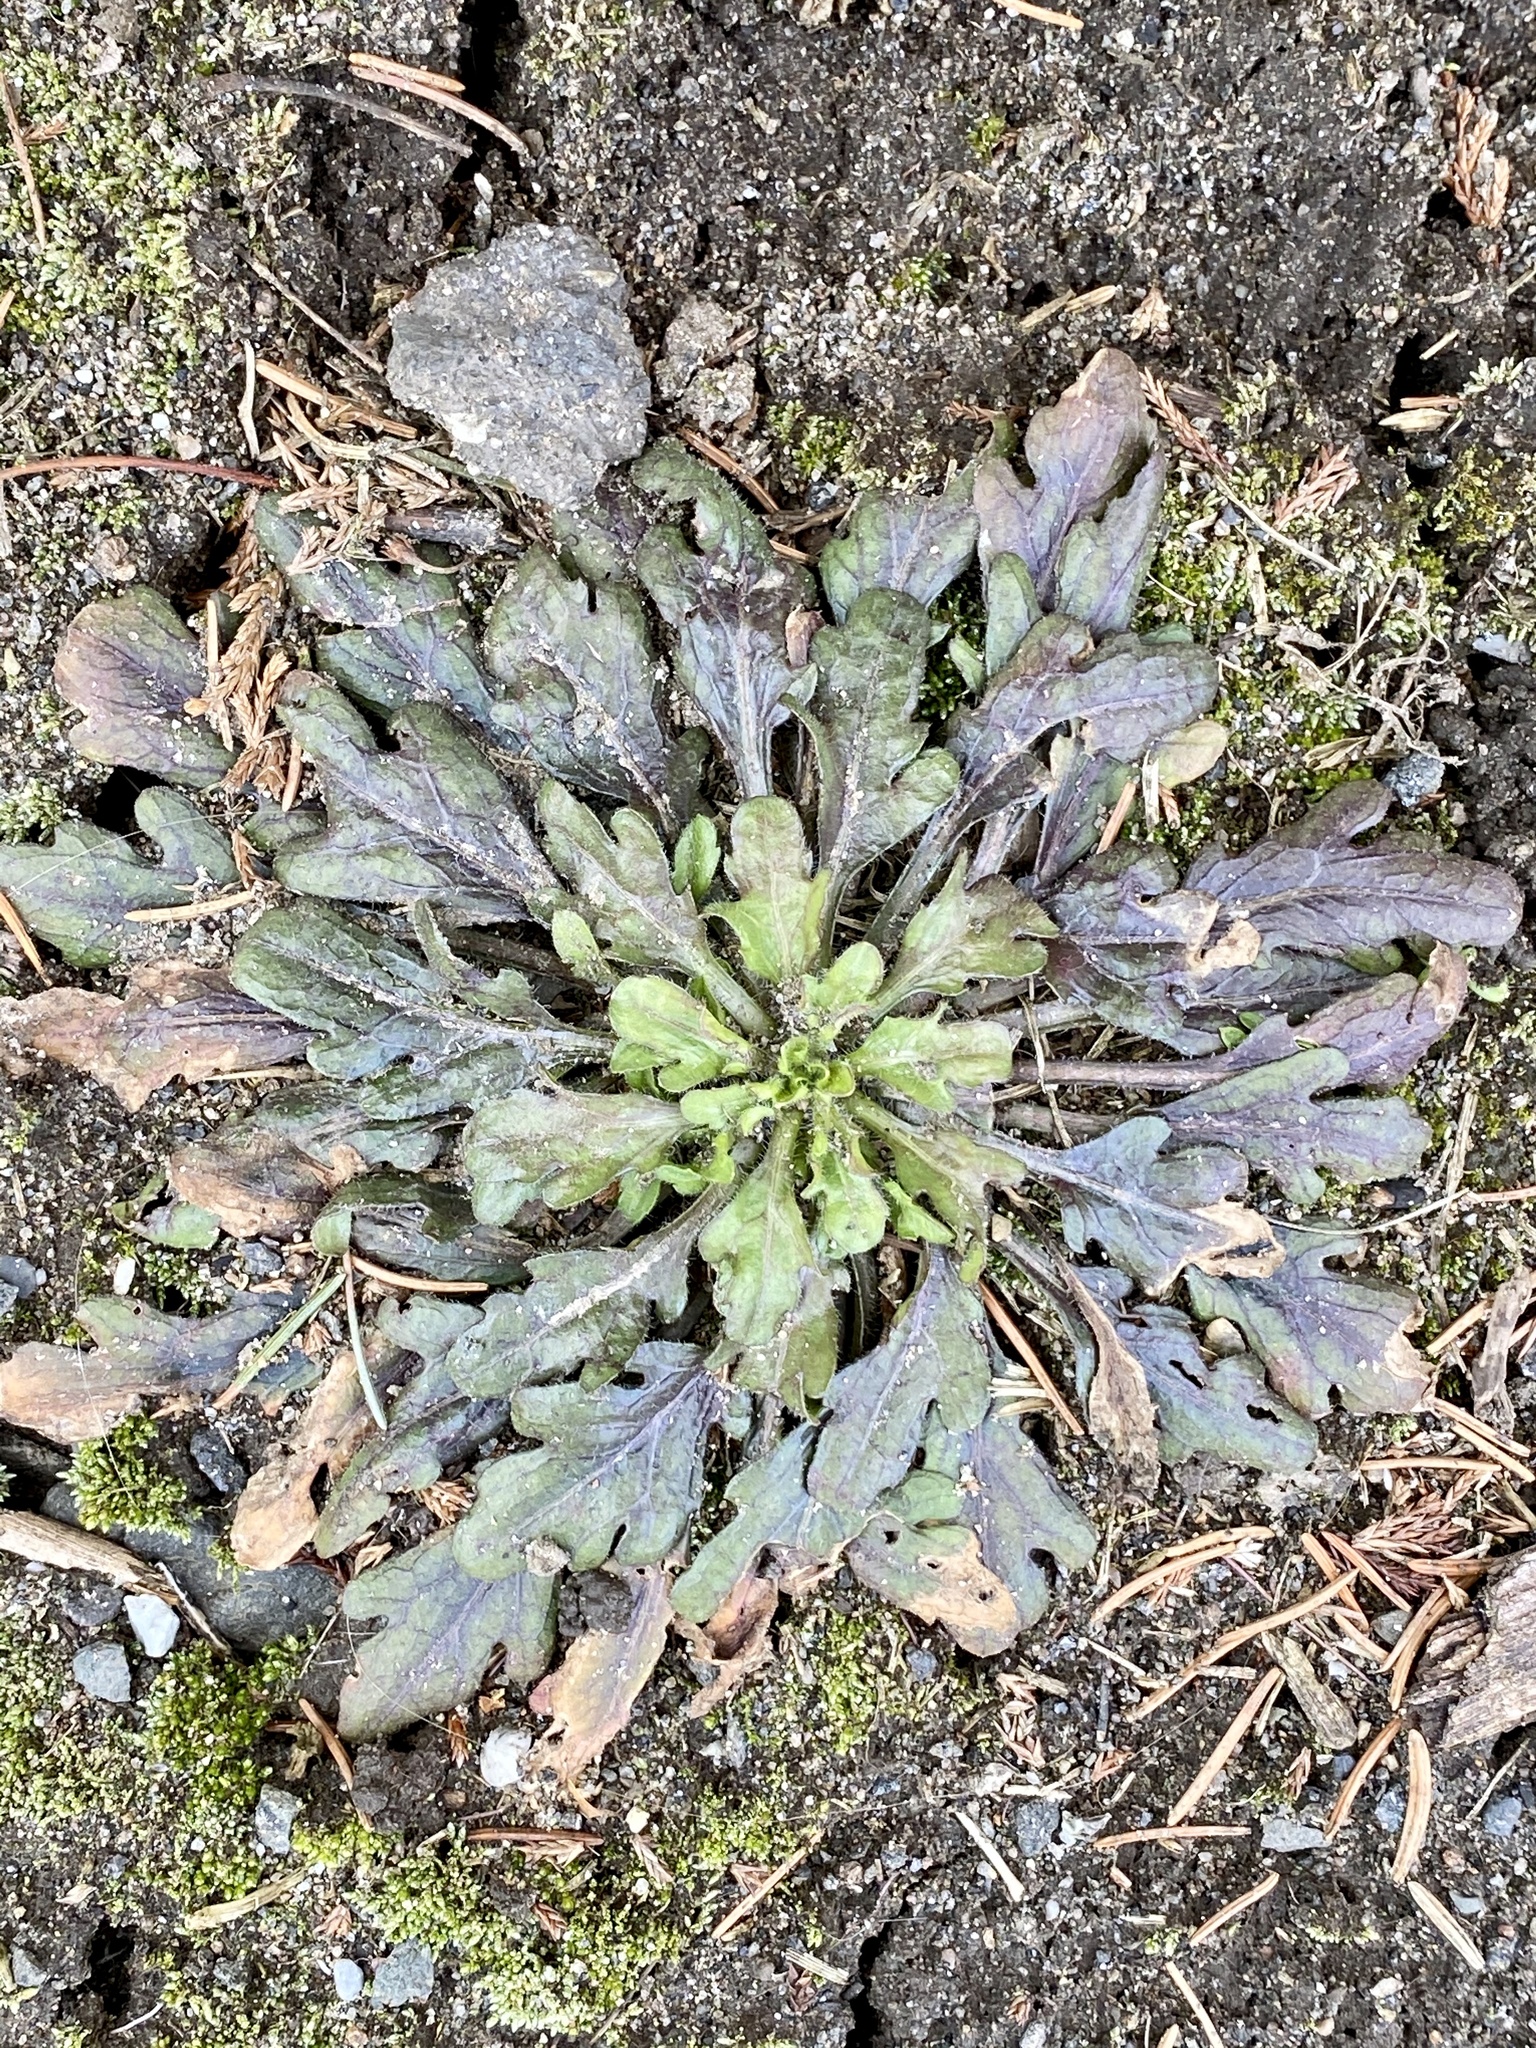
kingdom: Plantae
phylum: Tracheophyta
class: Magnoliopsida
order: Asterales
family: Asteraceae
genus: Erigeron
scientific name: Erigeron canadensis
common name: Canadian fleabane
